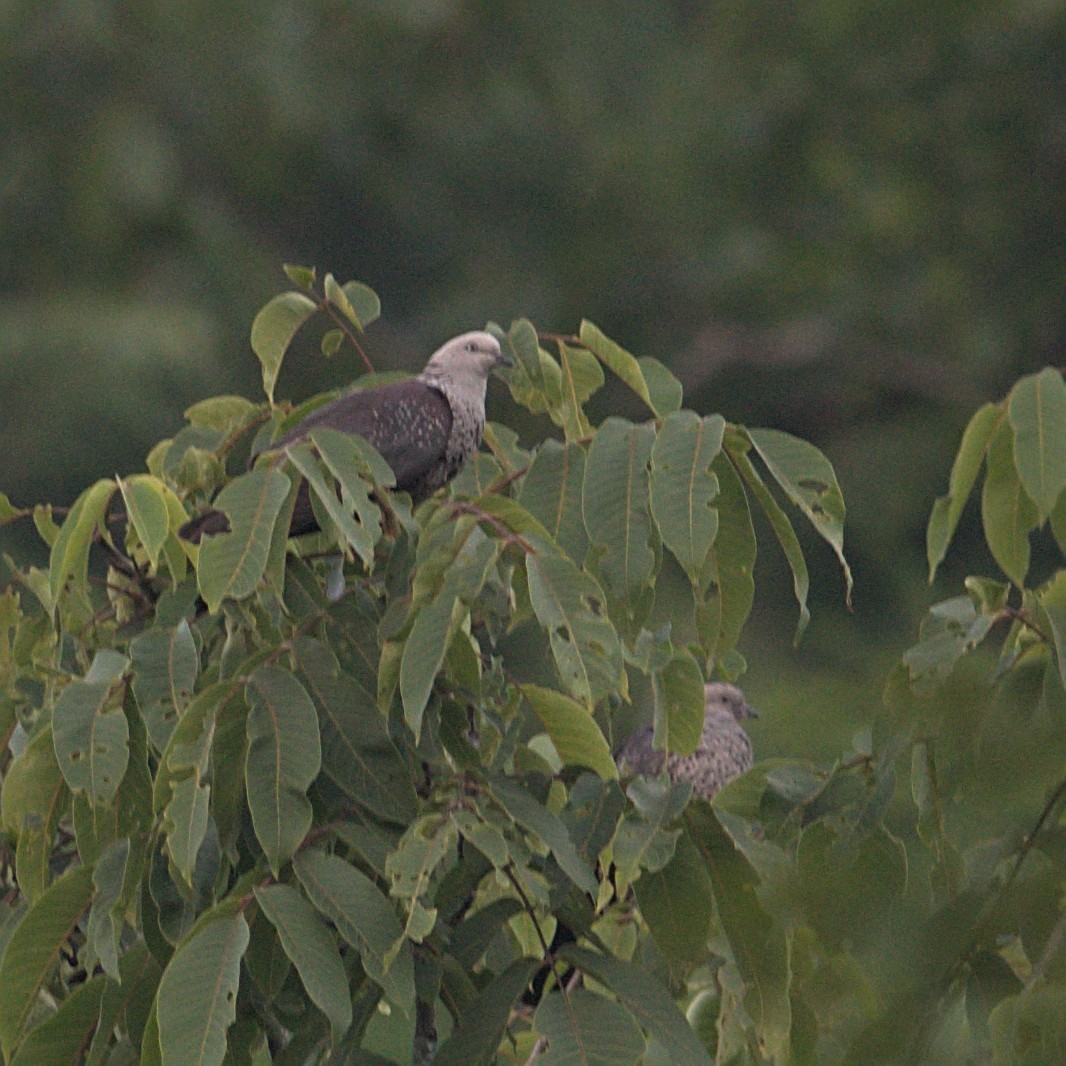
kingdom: Animalia
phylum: Chordata
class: Aves
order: Columbiformes
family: Columbidae
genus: Columba
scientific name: Columba hodgsonii
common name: Speckled wood pigeon
